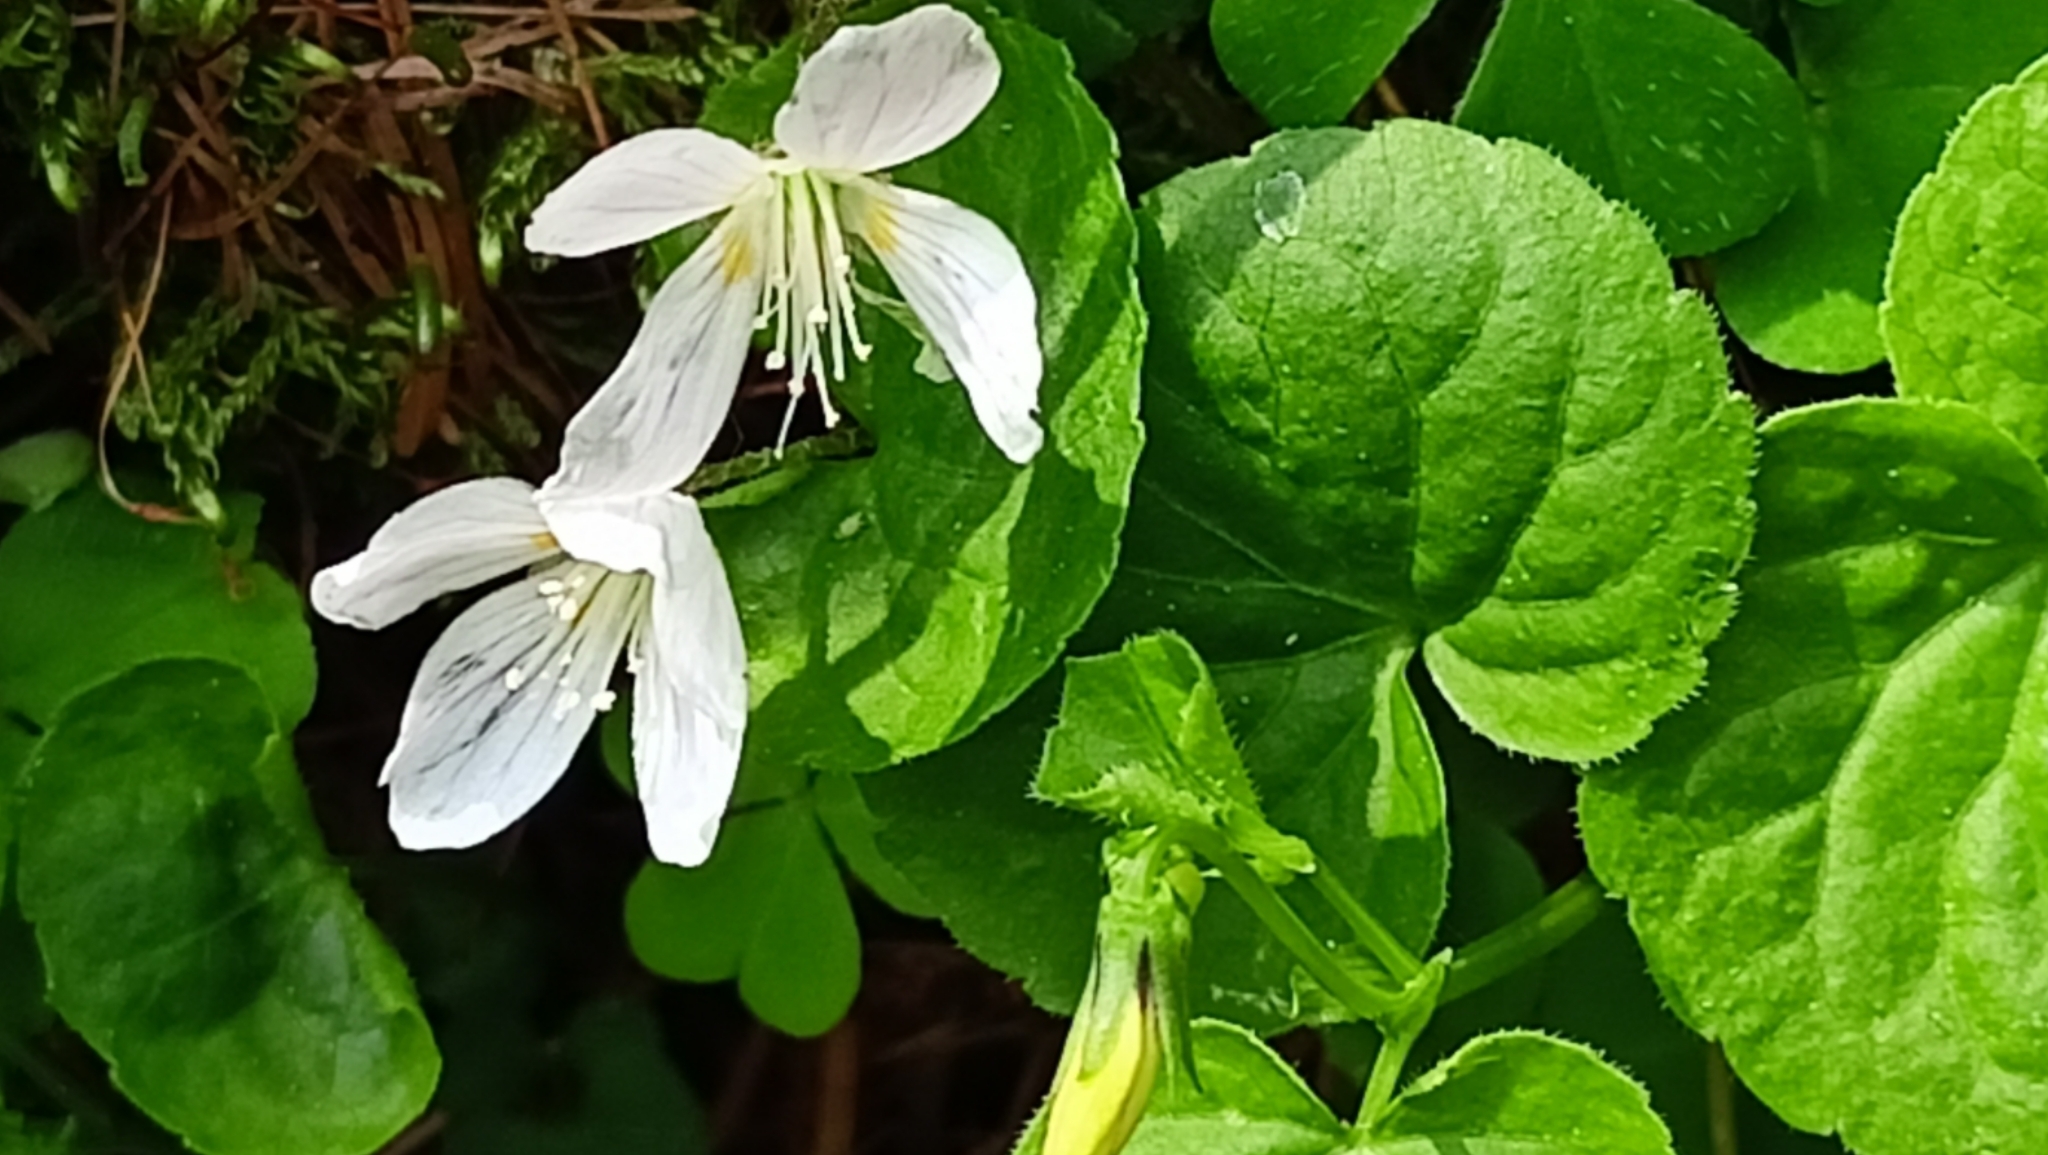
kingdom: Plantae
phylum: Tracheophyta
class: Magnoliopsida
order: Oxalidales
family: Oxalidaceae
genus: Oxalis
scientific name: Oxalis acetosella
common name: Wood-sorrel
